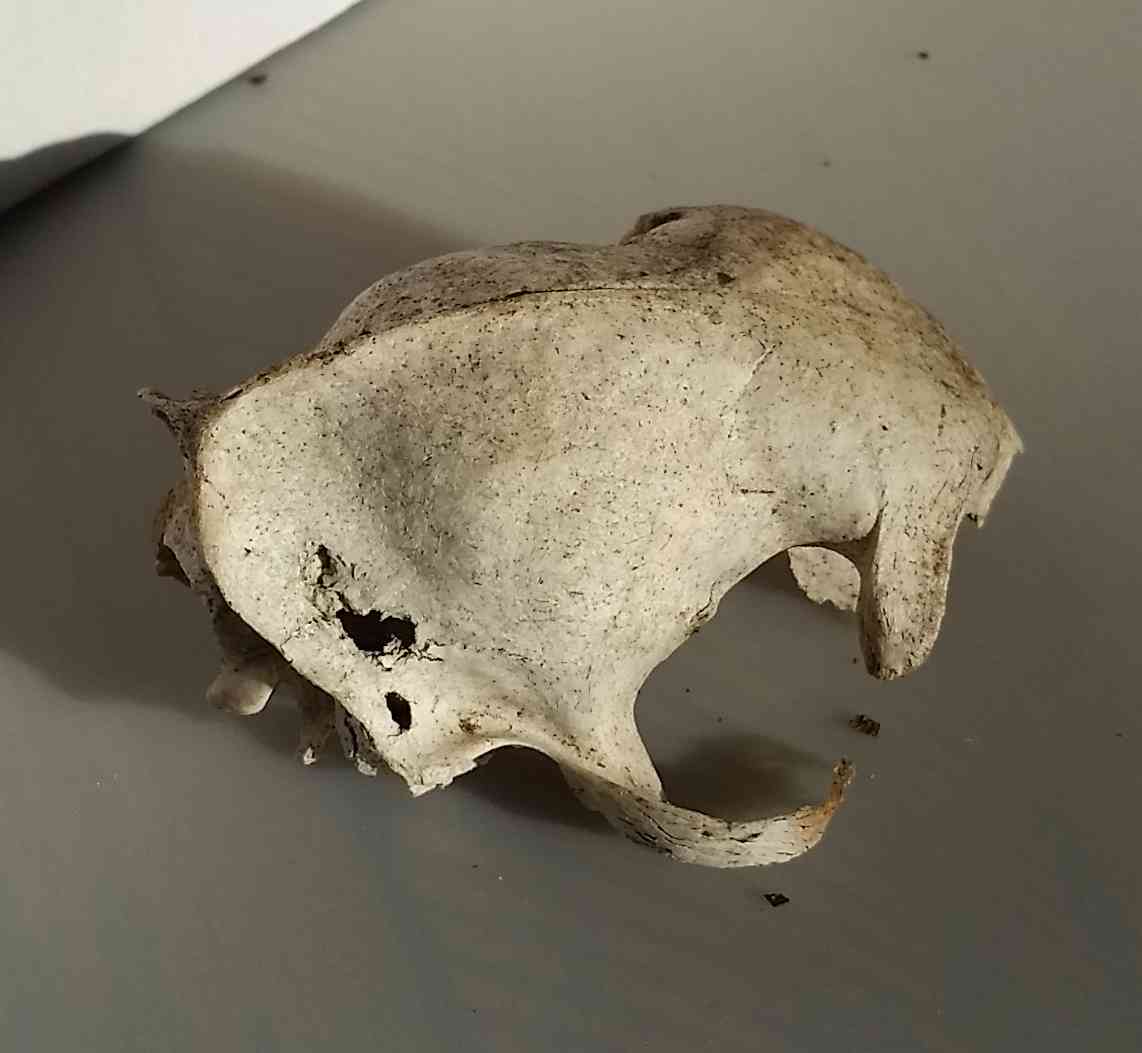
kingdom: Animalia
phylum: Chordata
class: Mammalia
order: Carnivora
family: Felidae
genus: Felis
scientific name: Felis catus
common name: Domestic cat
